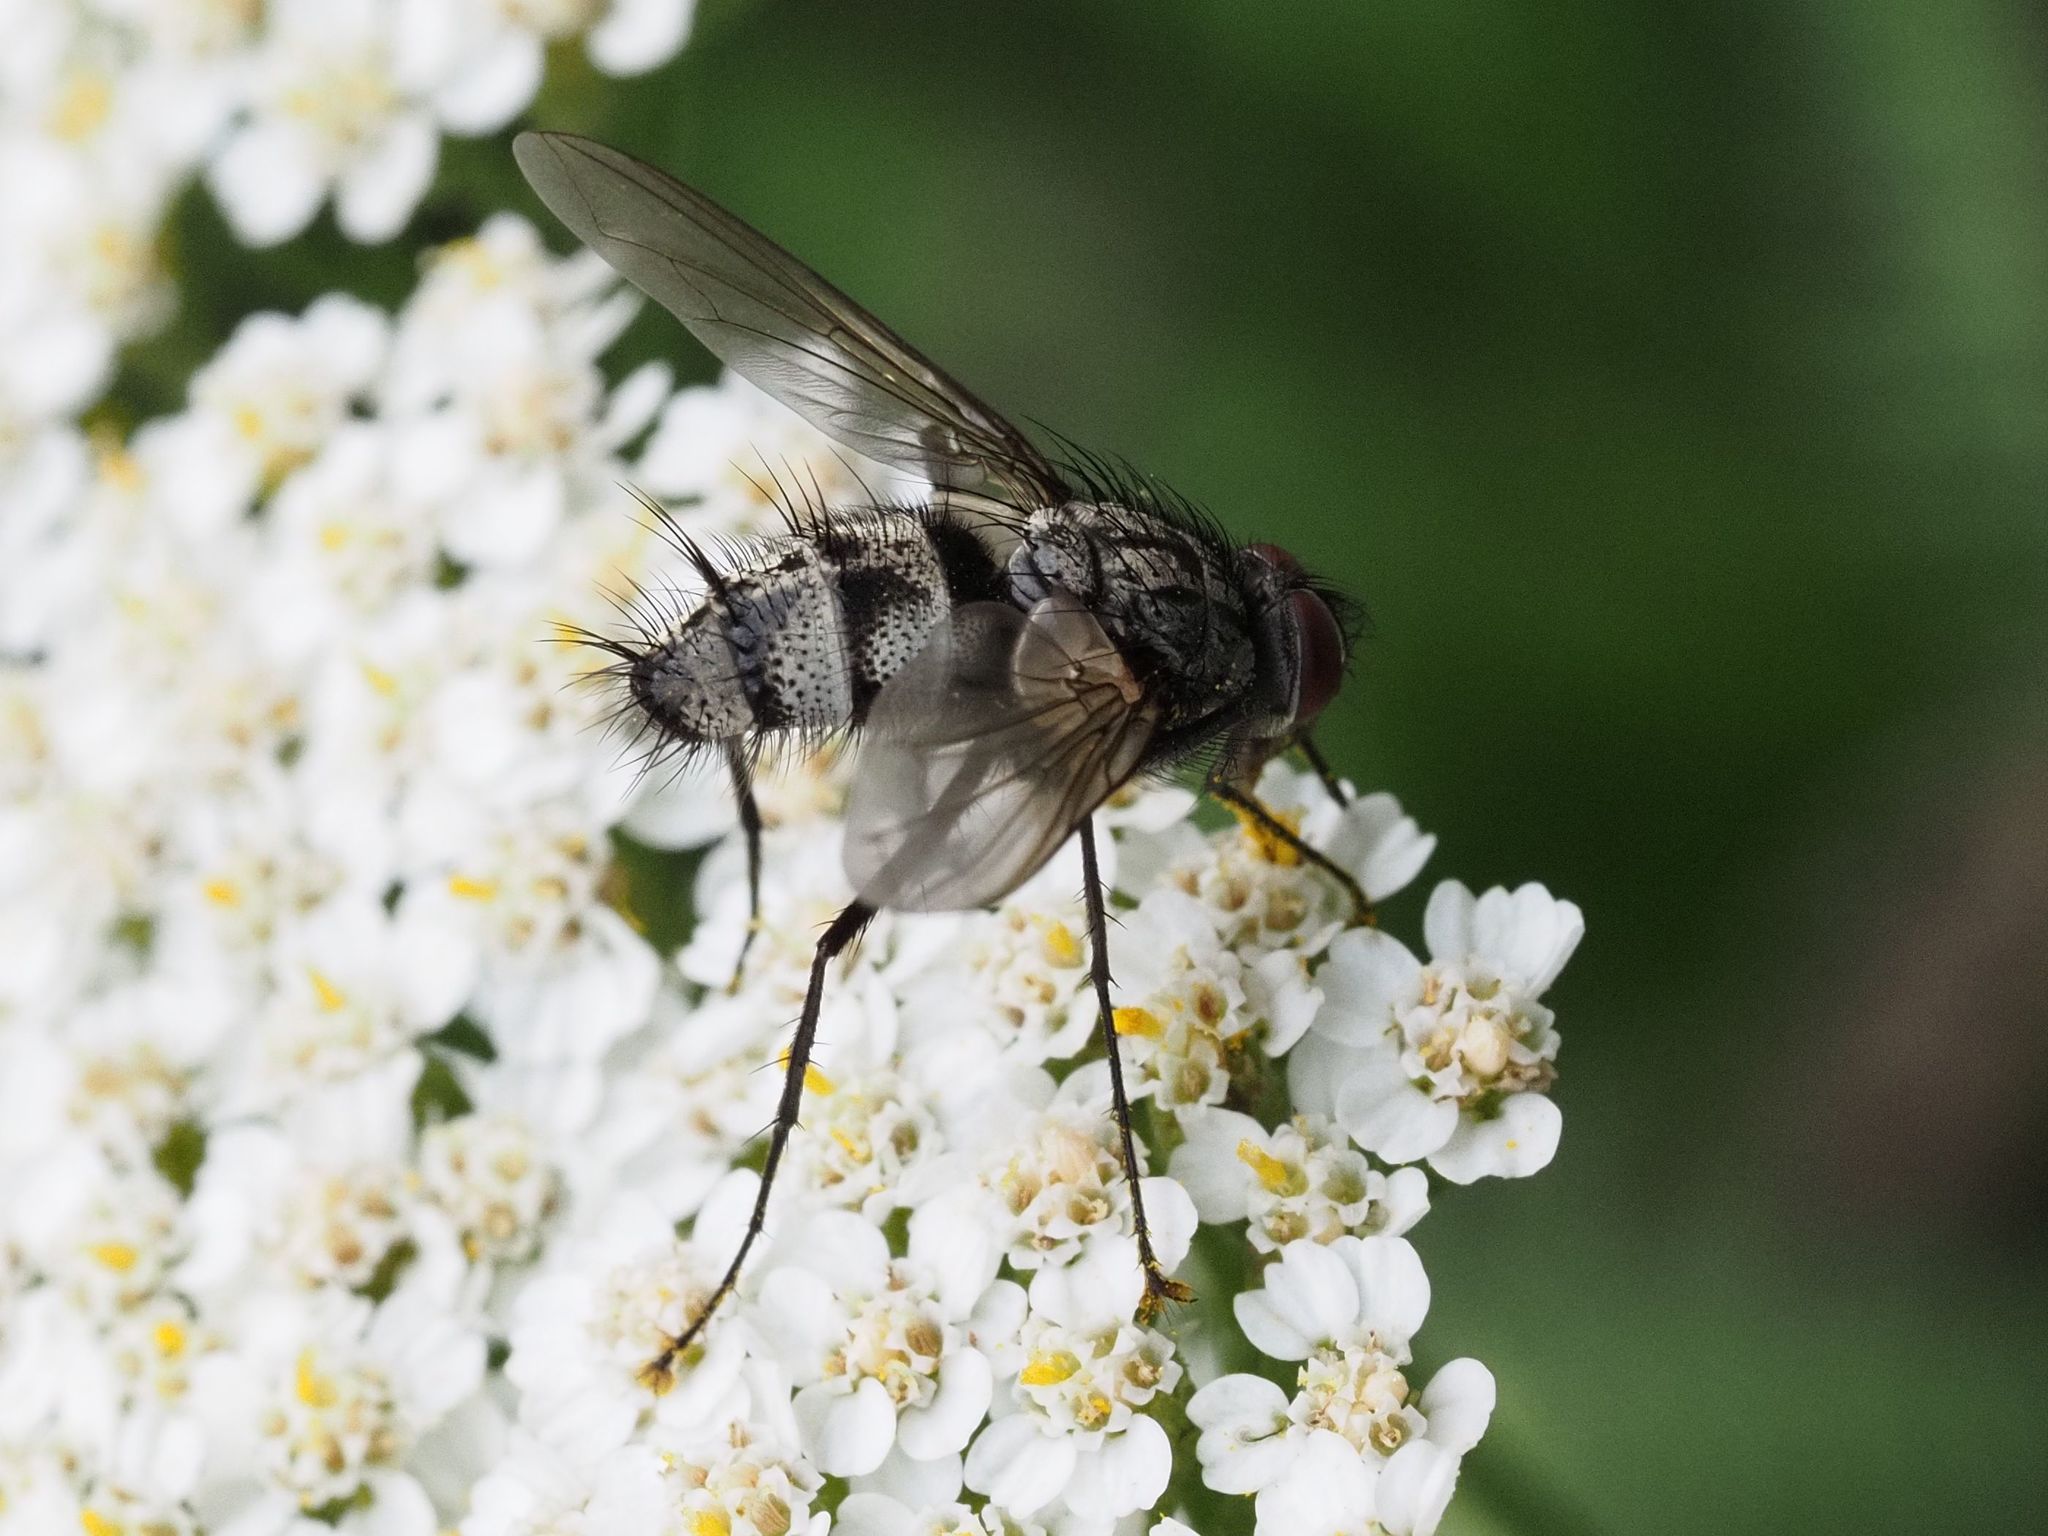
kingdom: Animalia
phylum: Arthropoda
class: Insecta
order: Diptera
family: Tachinidae
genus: Dinera
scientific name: Dinera ferina
